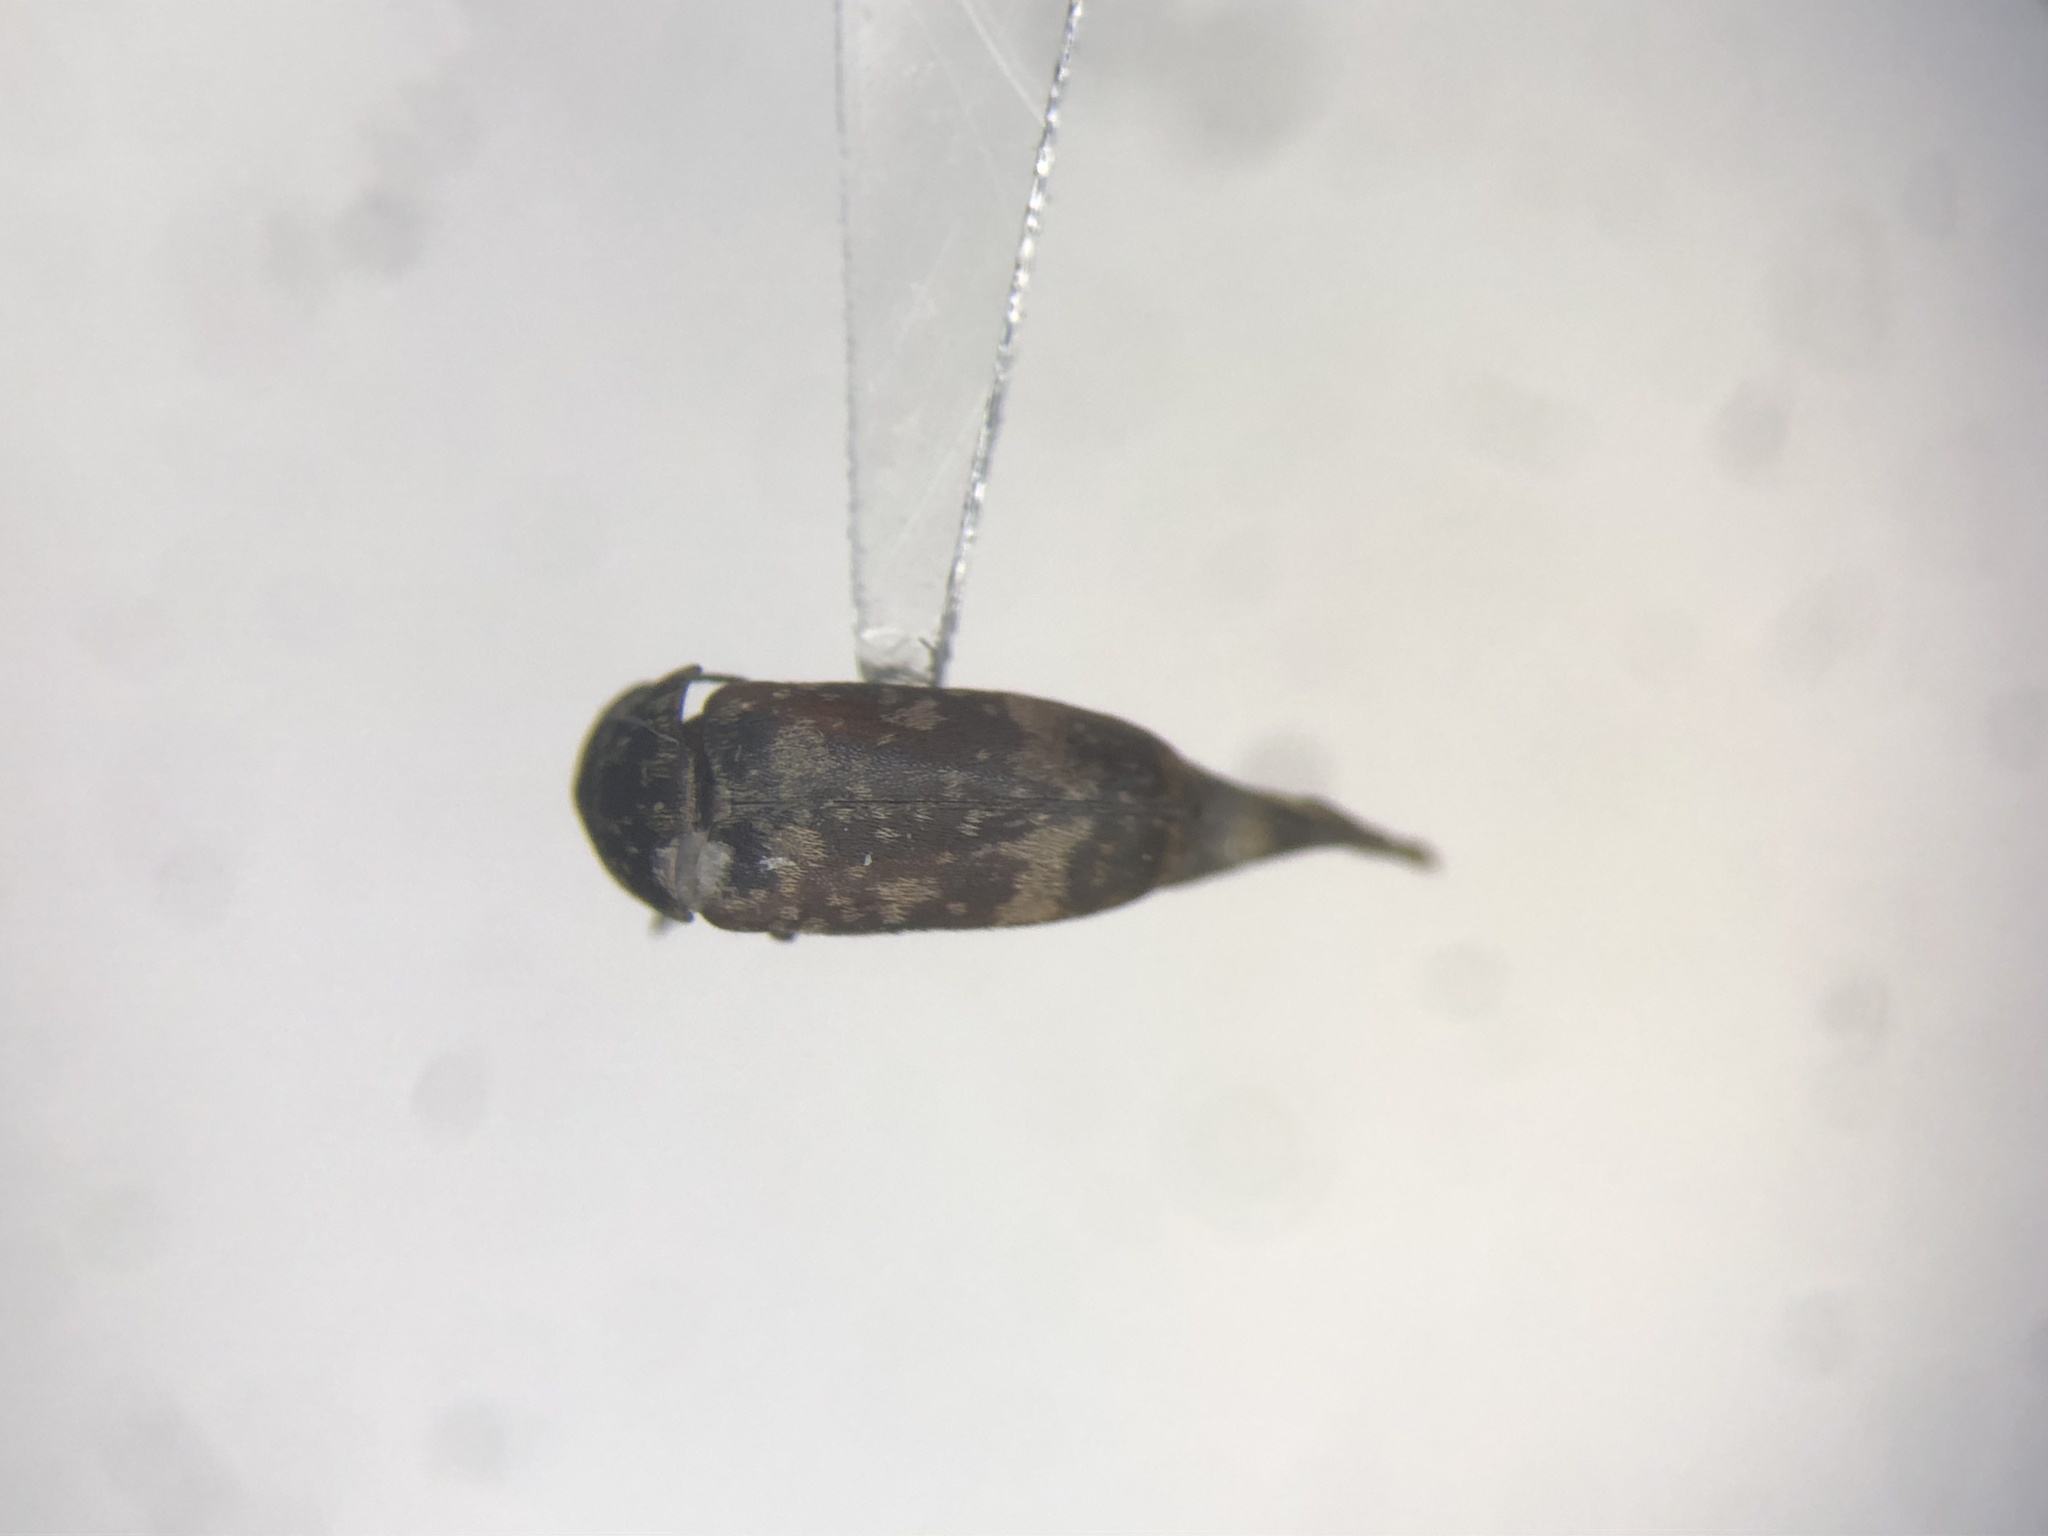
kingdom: Animalia
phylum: Arthropoda
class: Insecta
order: Coleoptera
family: Mordellidae
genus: Mordellaria
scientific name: Mordellaria serval
